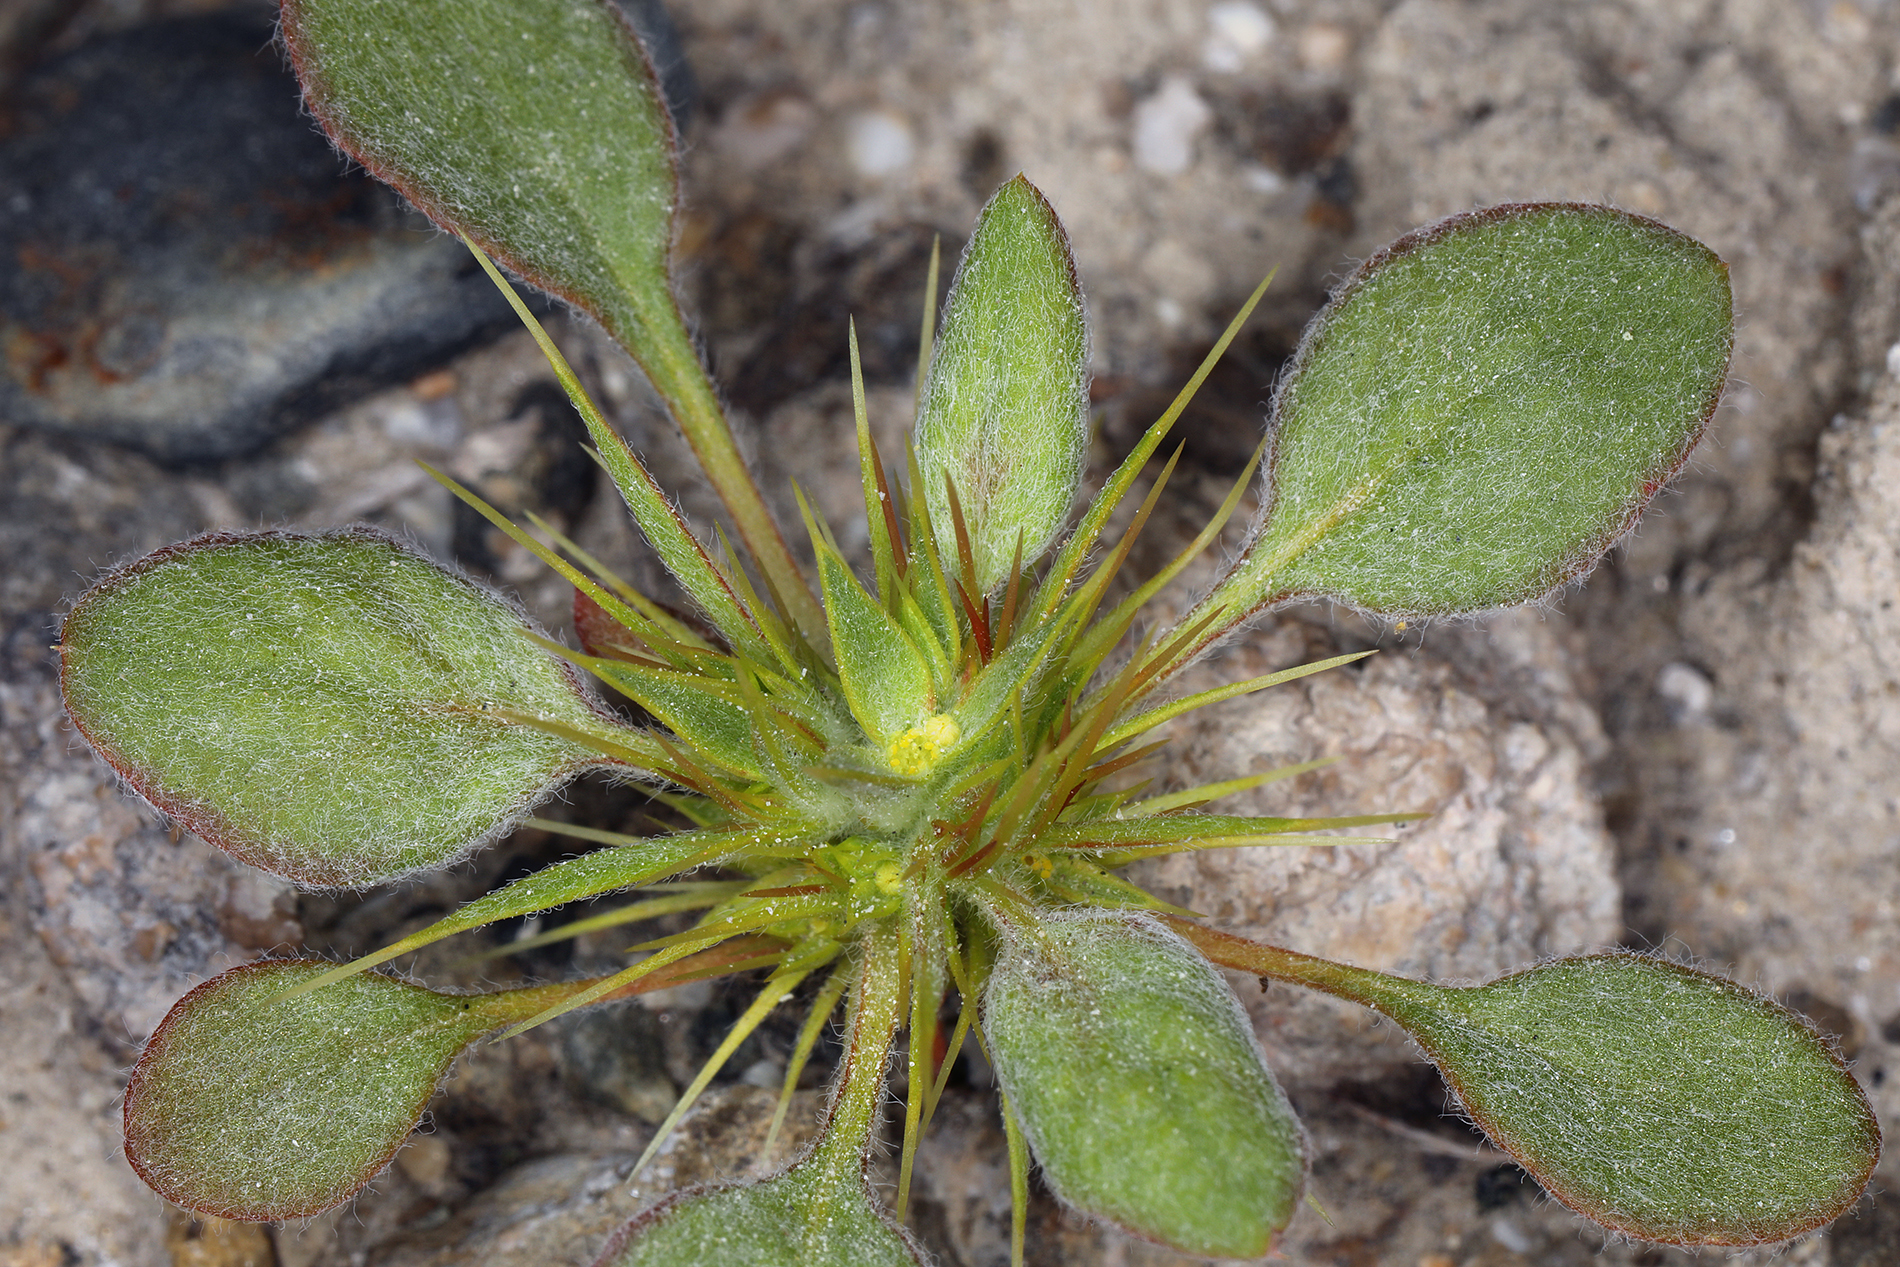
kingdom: Plantae
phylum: Tracheophyta
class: Magnoliopsida
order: Caryophyllales
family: Polygonaceae
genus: Chorizanthe
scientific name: Chorizanthe rigida
